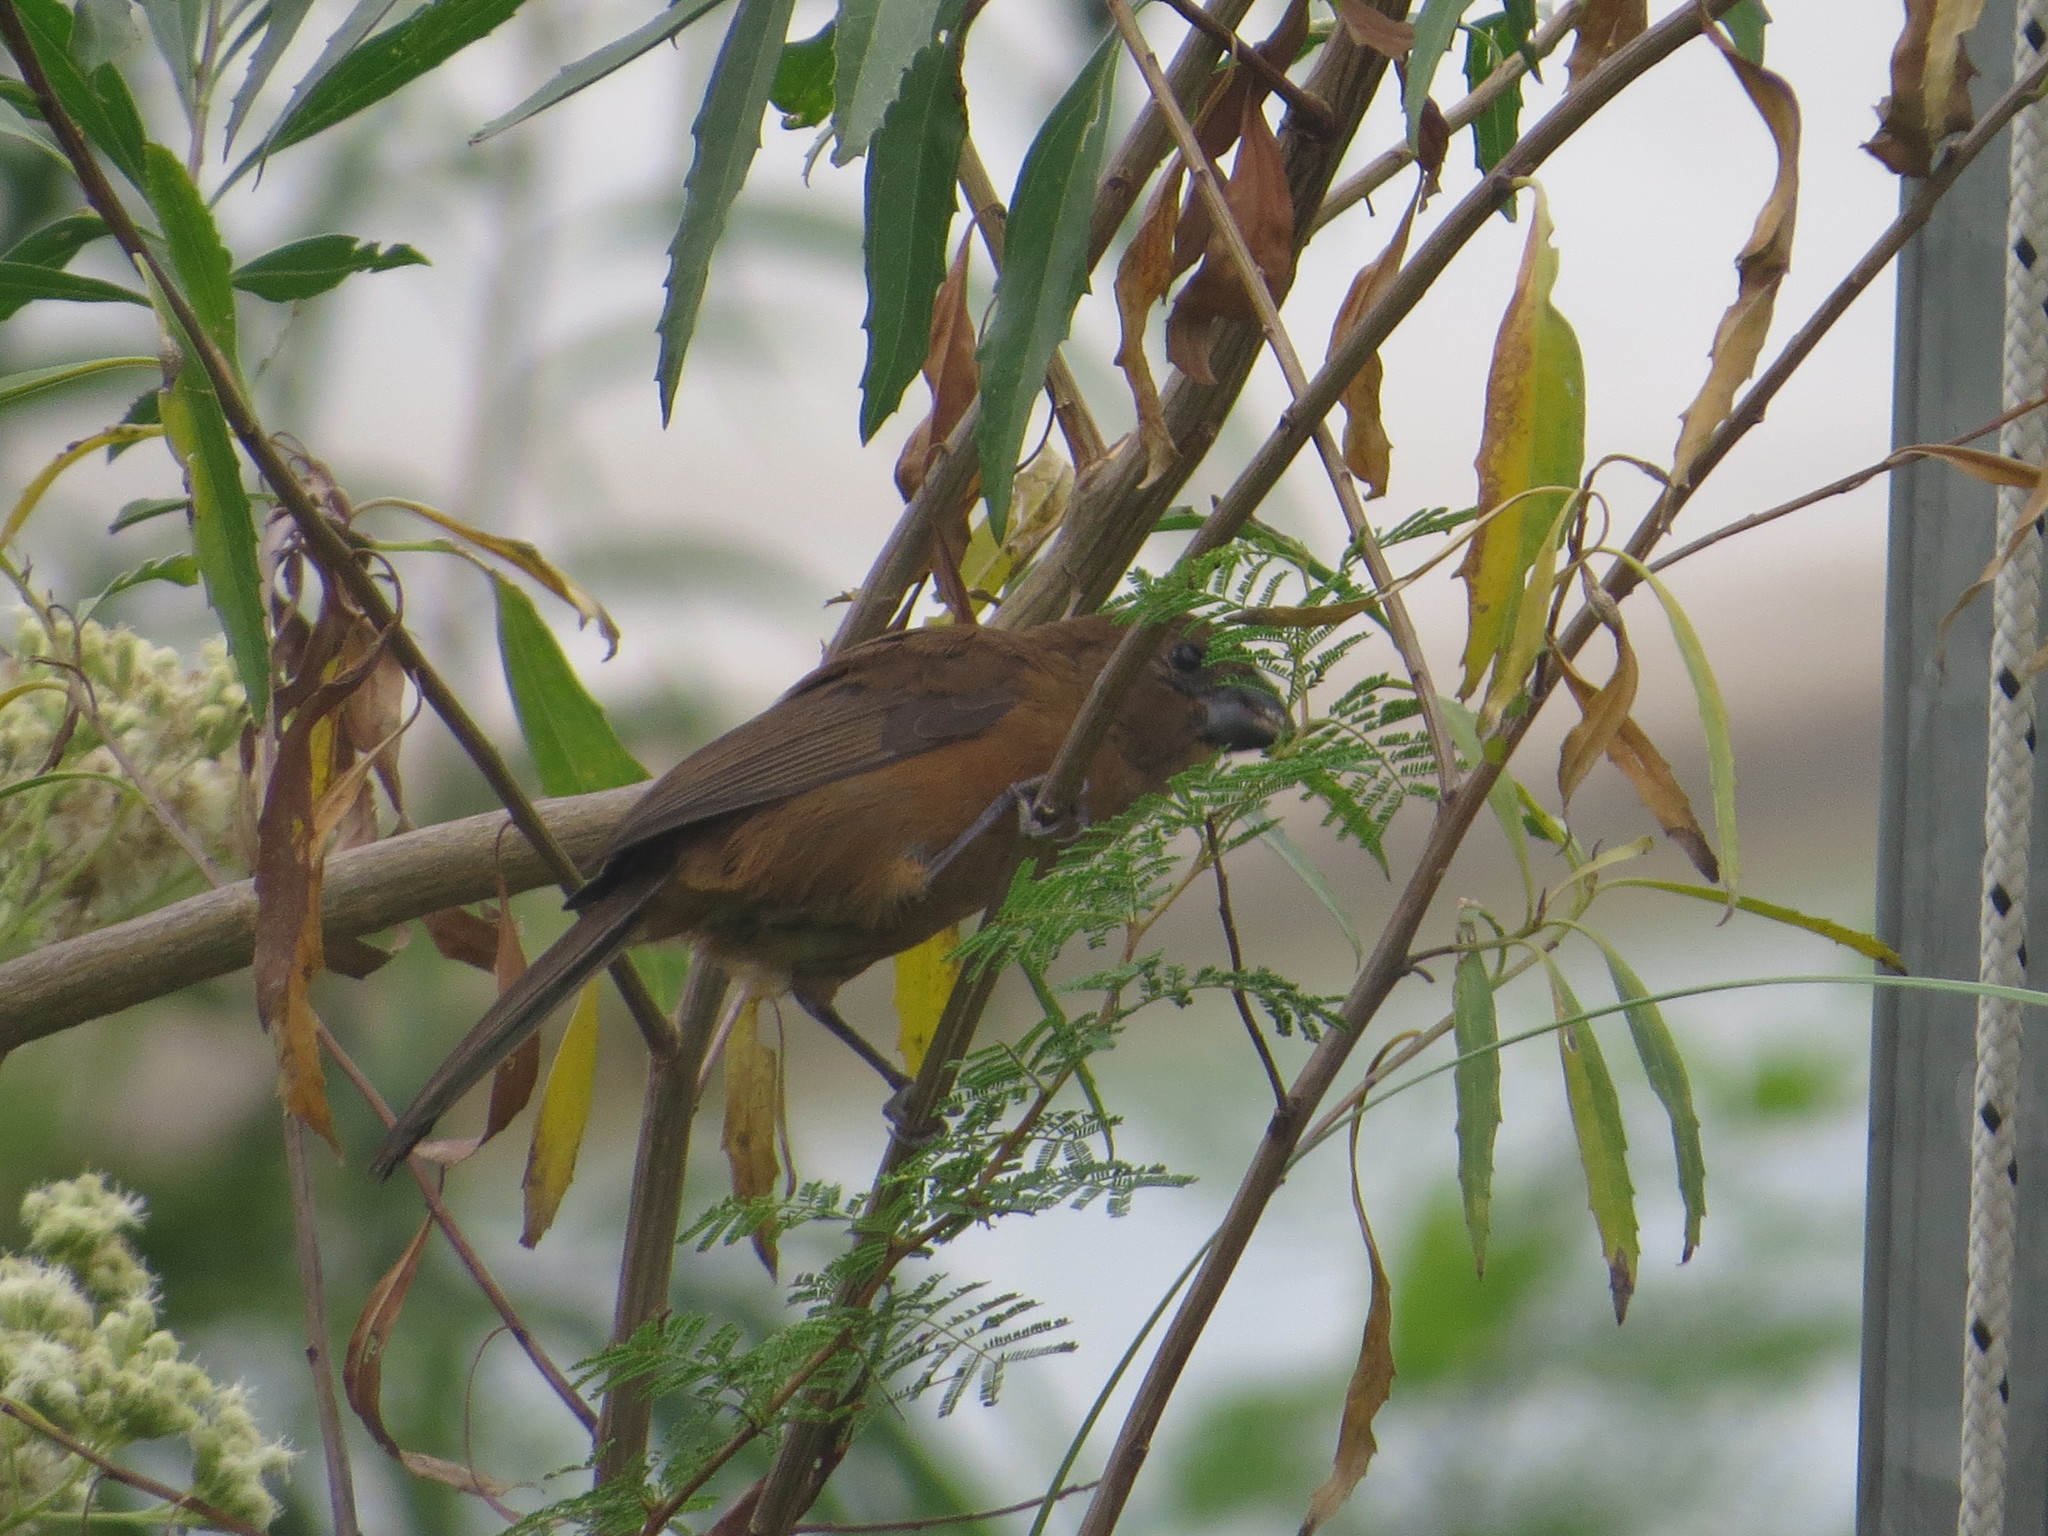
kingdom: Animalia
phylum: Chordata
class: Aves
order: Passeriformes
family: Cardinalidae
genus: Cyanoloxia
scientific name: Cyanoloxia brissonii
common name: Ultramarine grosbeak
